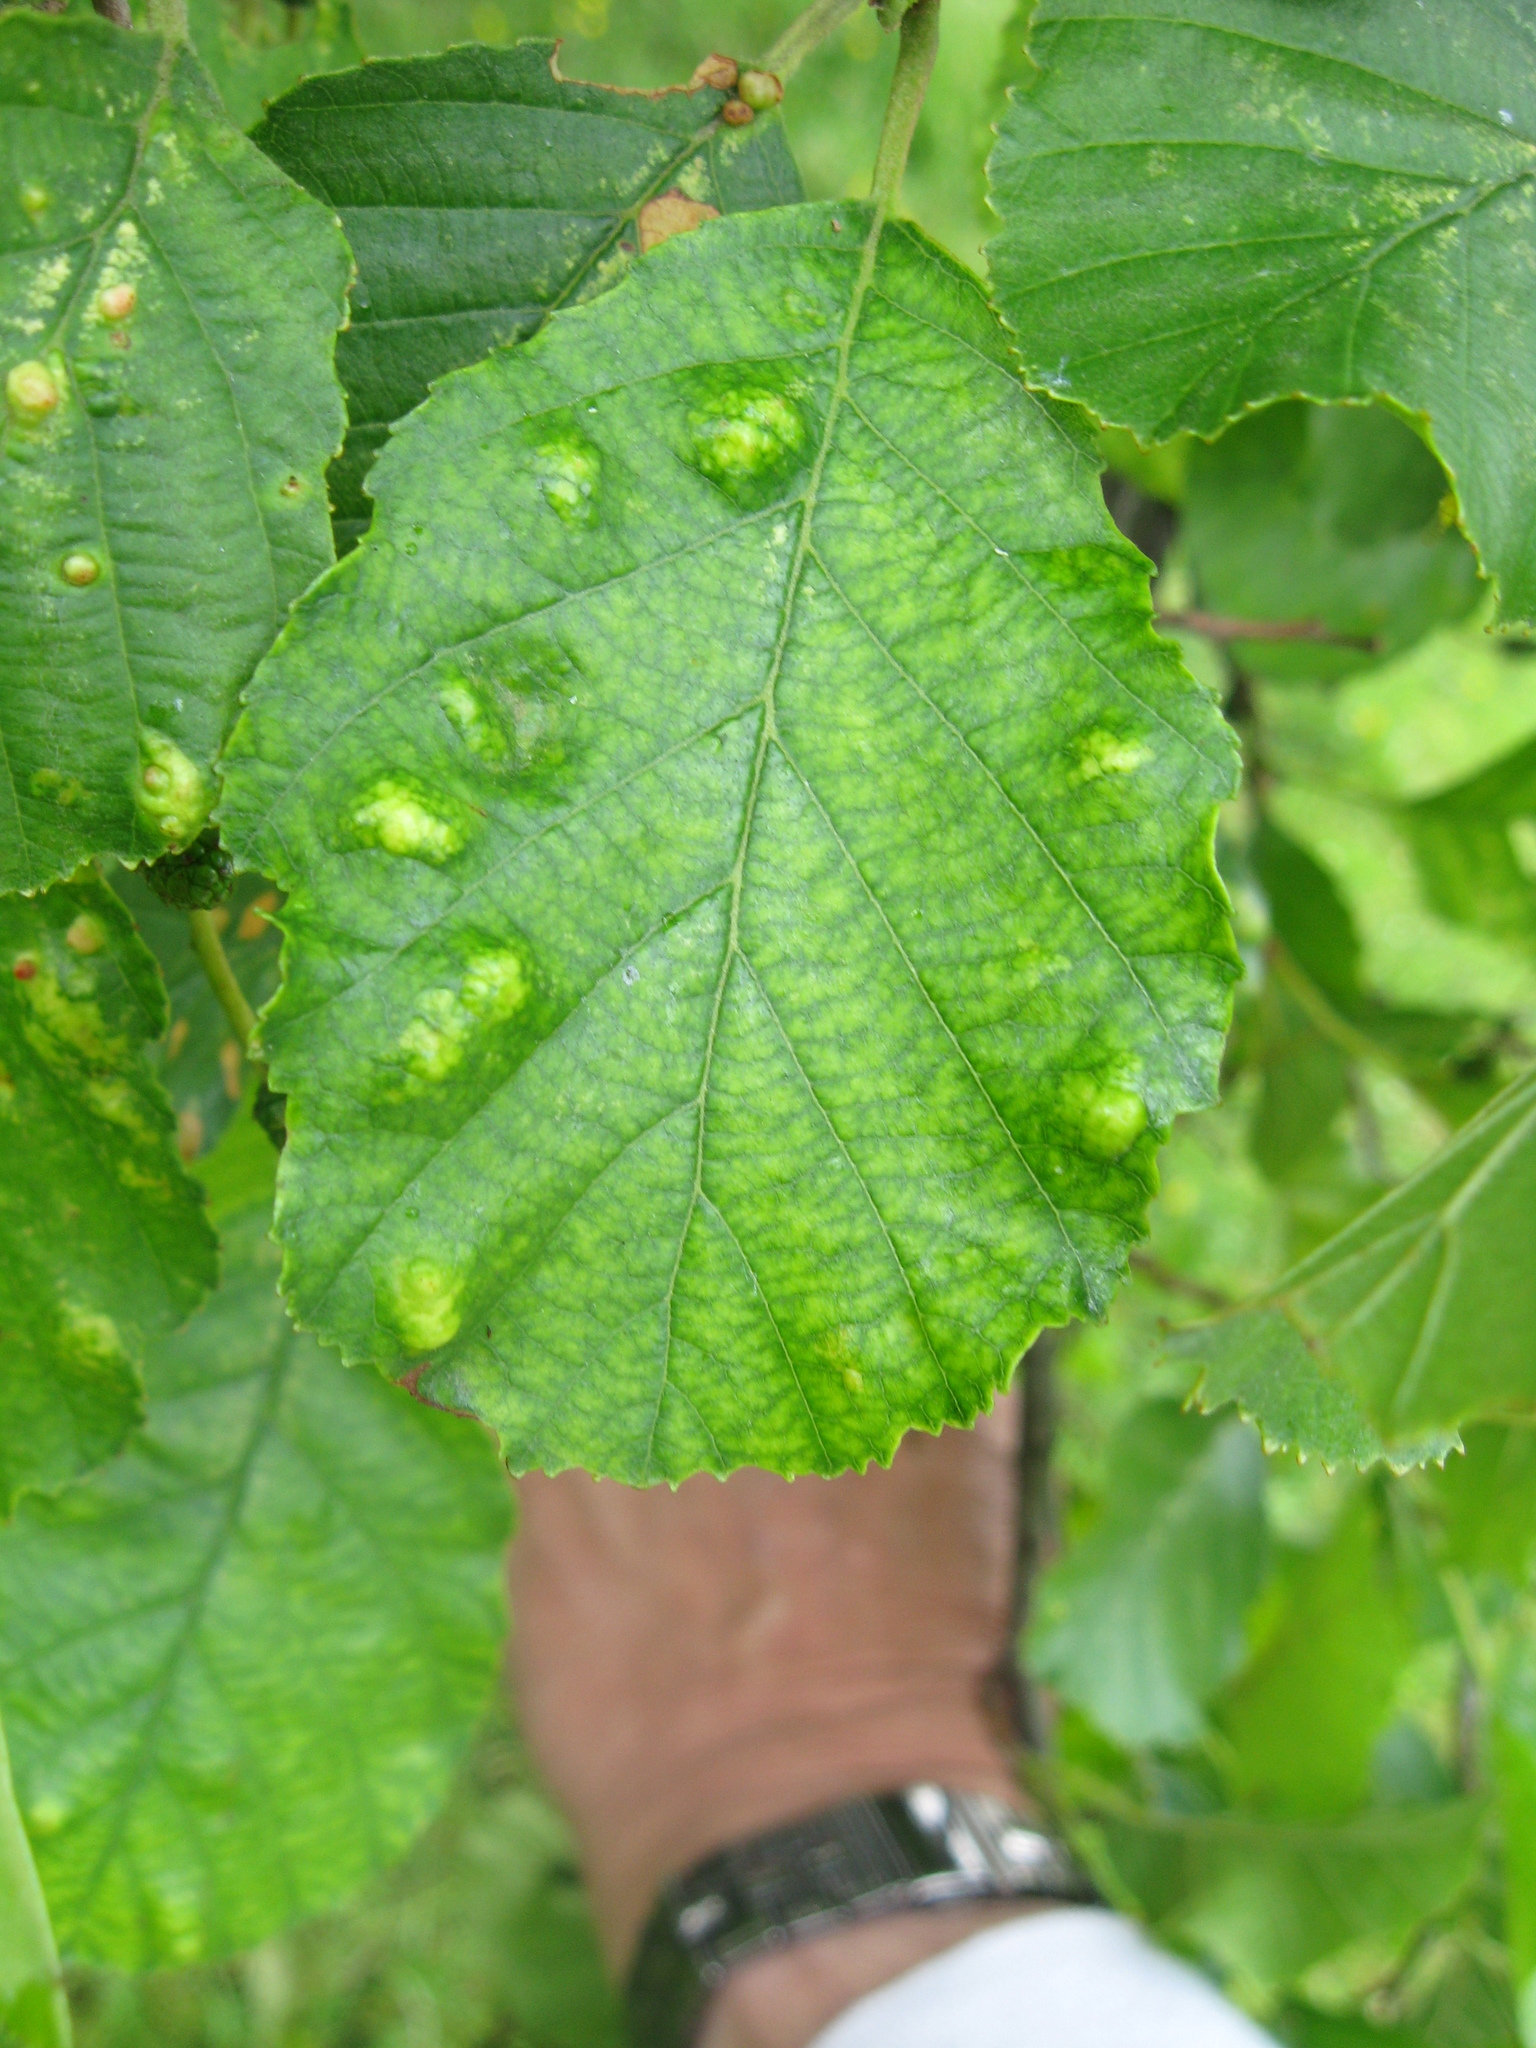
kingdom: Fungi
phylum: Ascomycota
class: Taphrinomycetes
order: Taphrinales
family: Taphrinaceae
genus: Taphrina
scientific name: Taphrina sadebeckii
